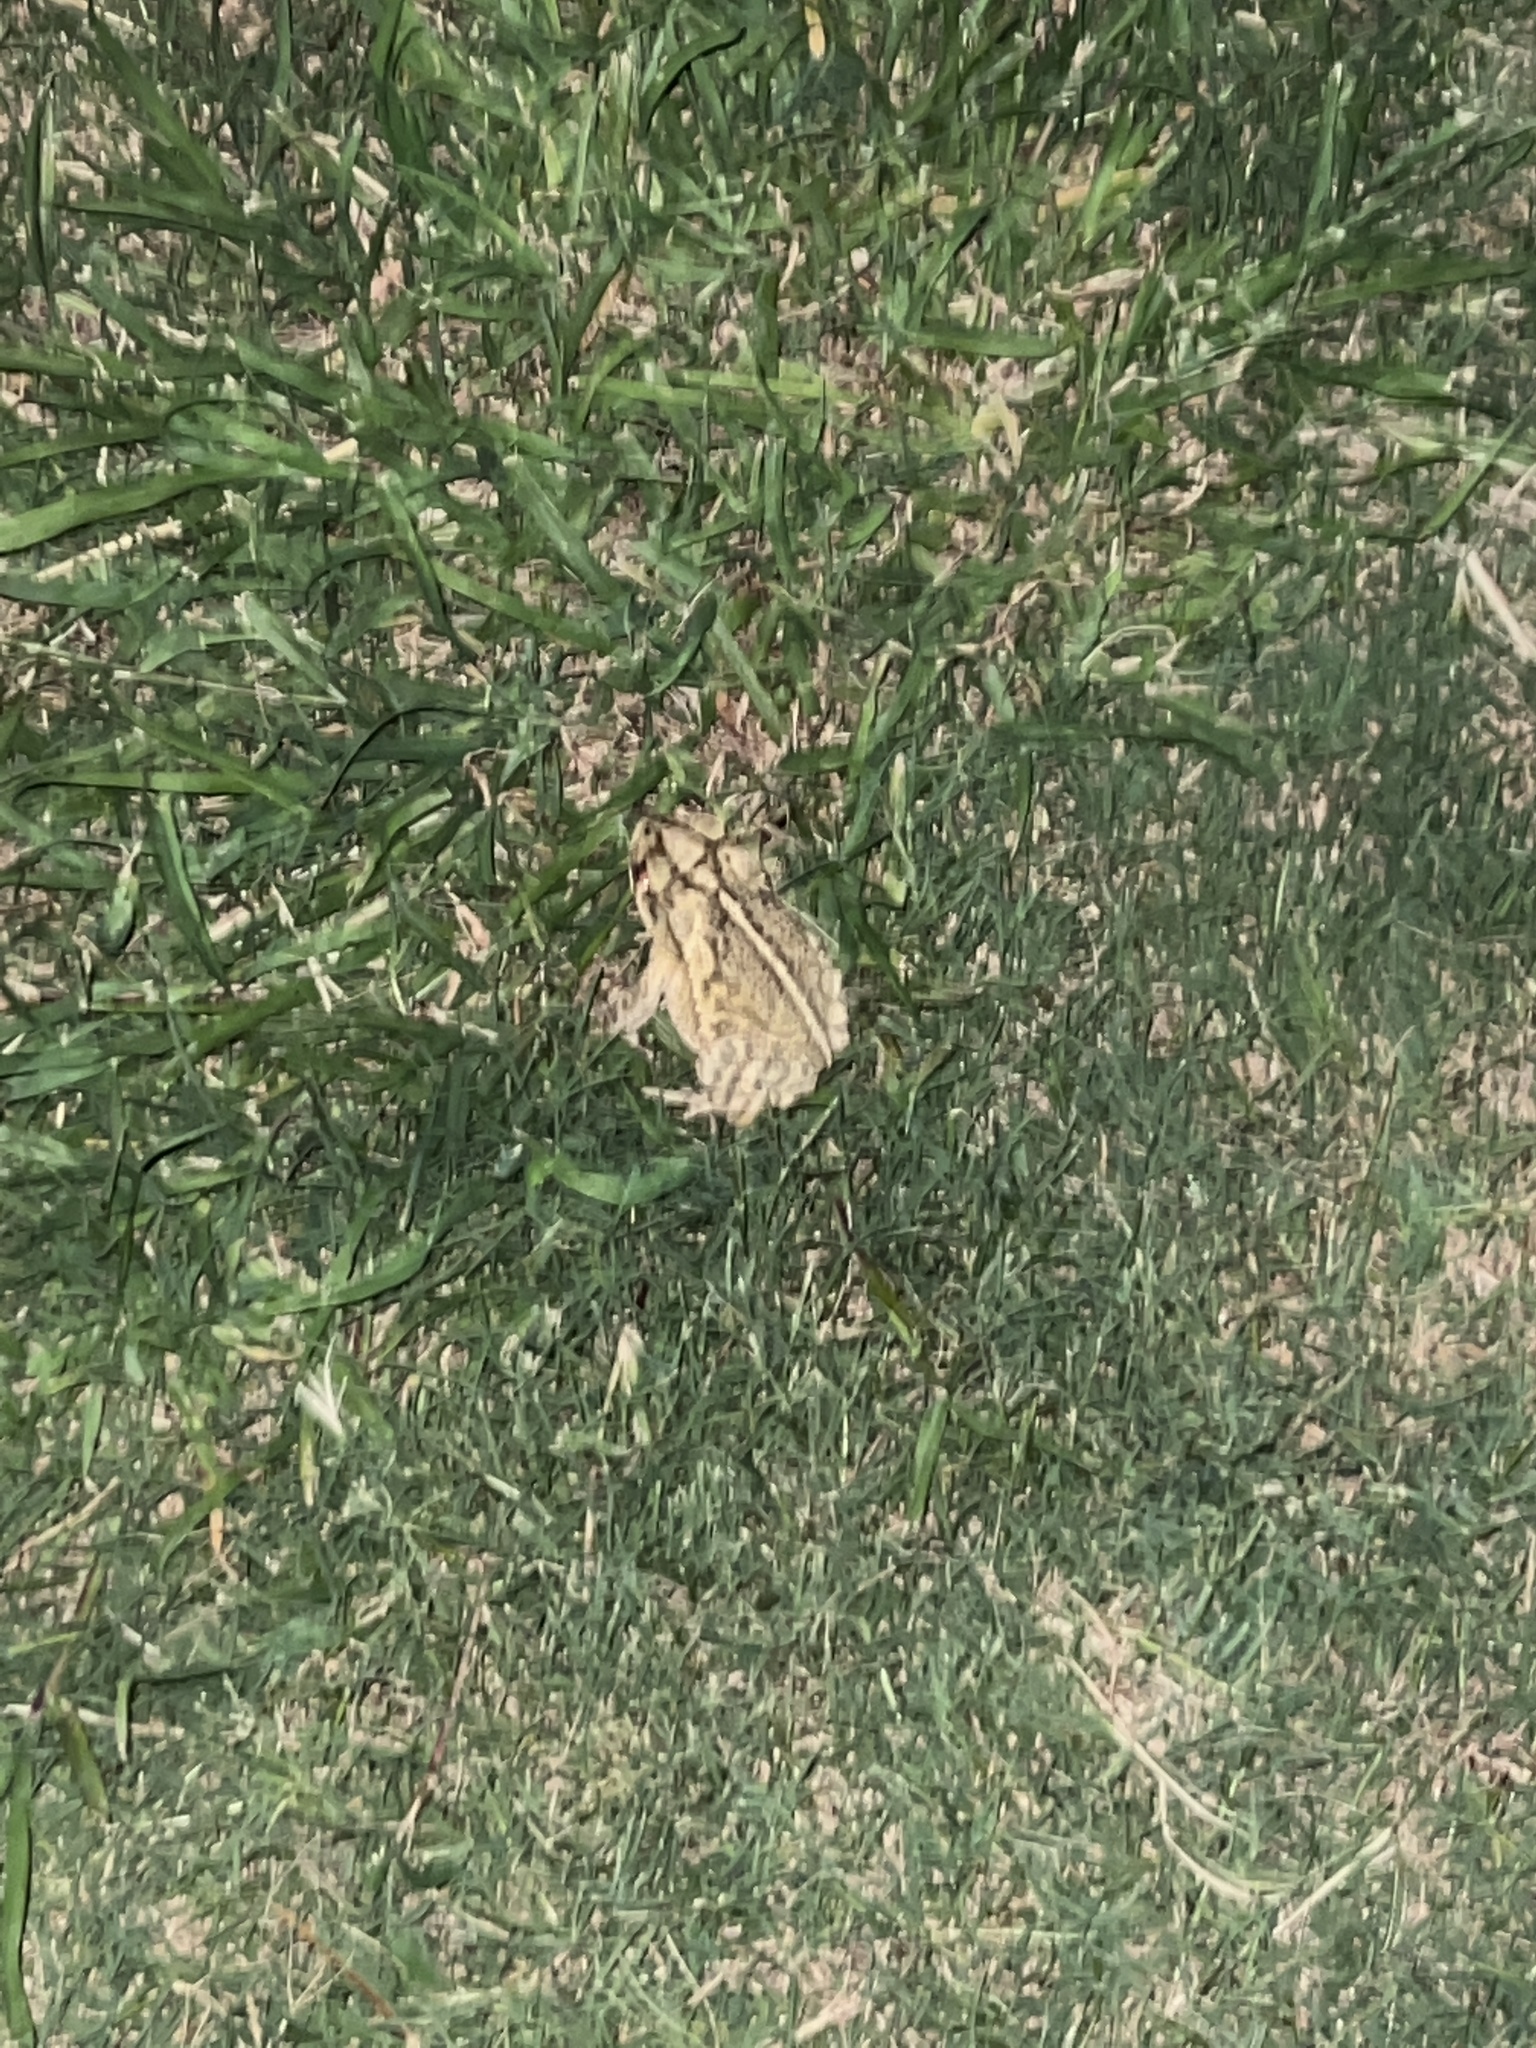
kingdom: Animalia
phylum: Chordata
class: Amphibia
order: Anura
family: Bufonidae
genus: Incilius
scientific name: Incilius nebulifer
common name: Gulf coast toad
